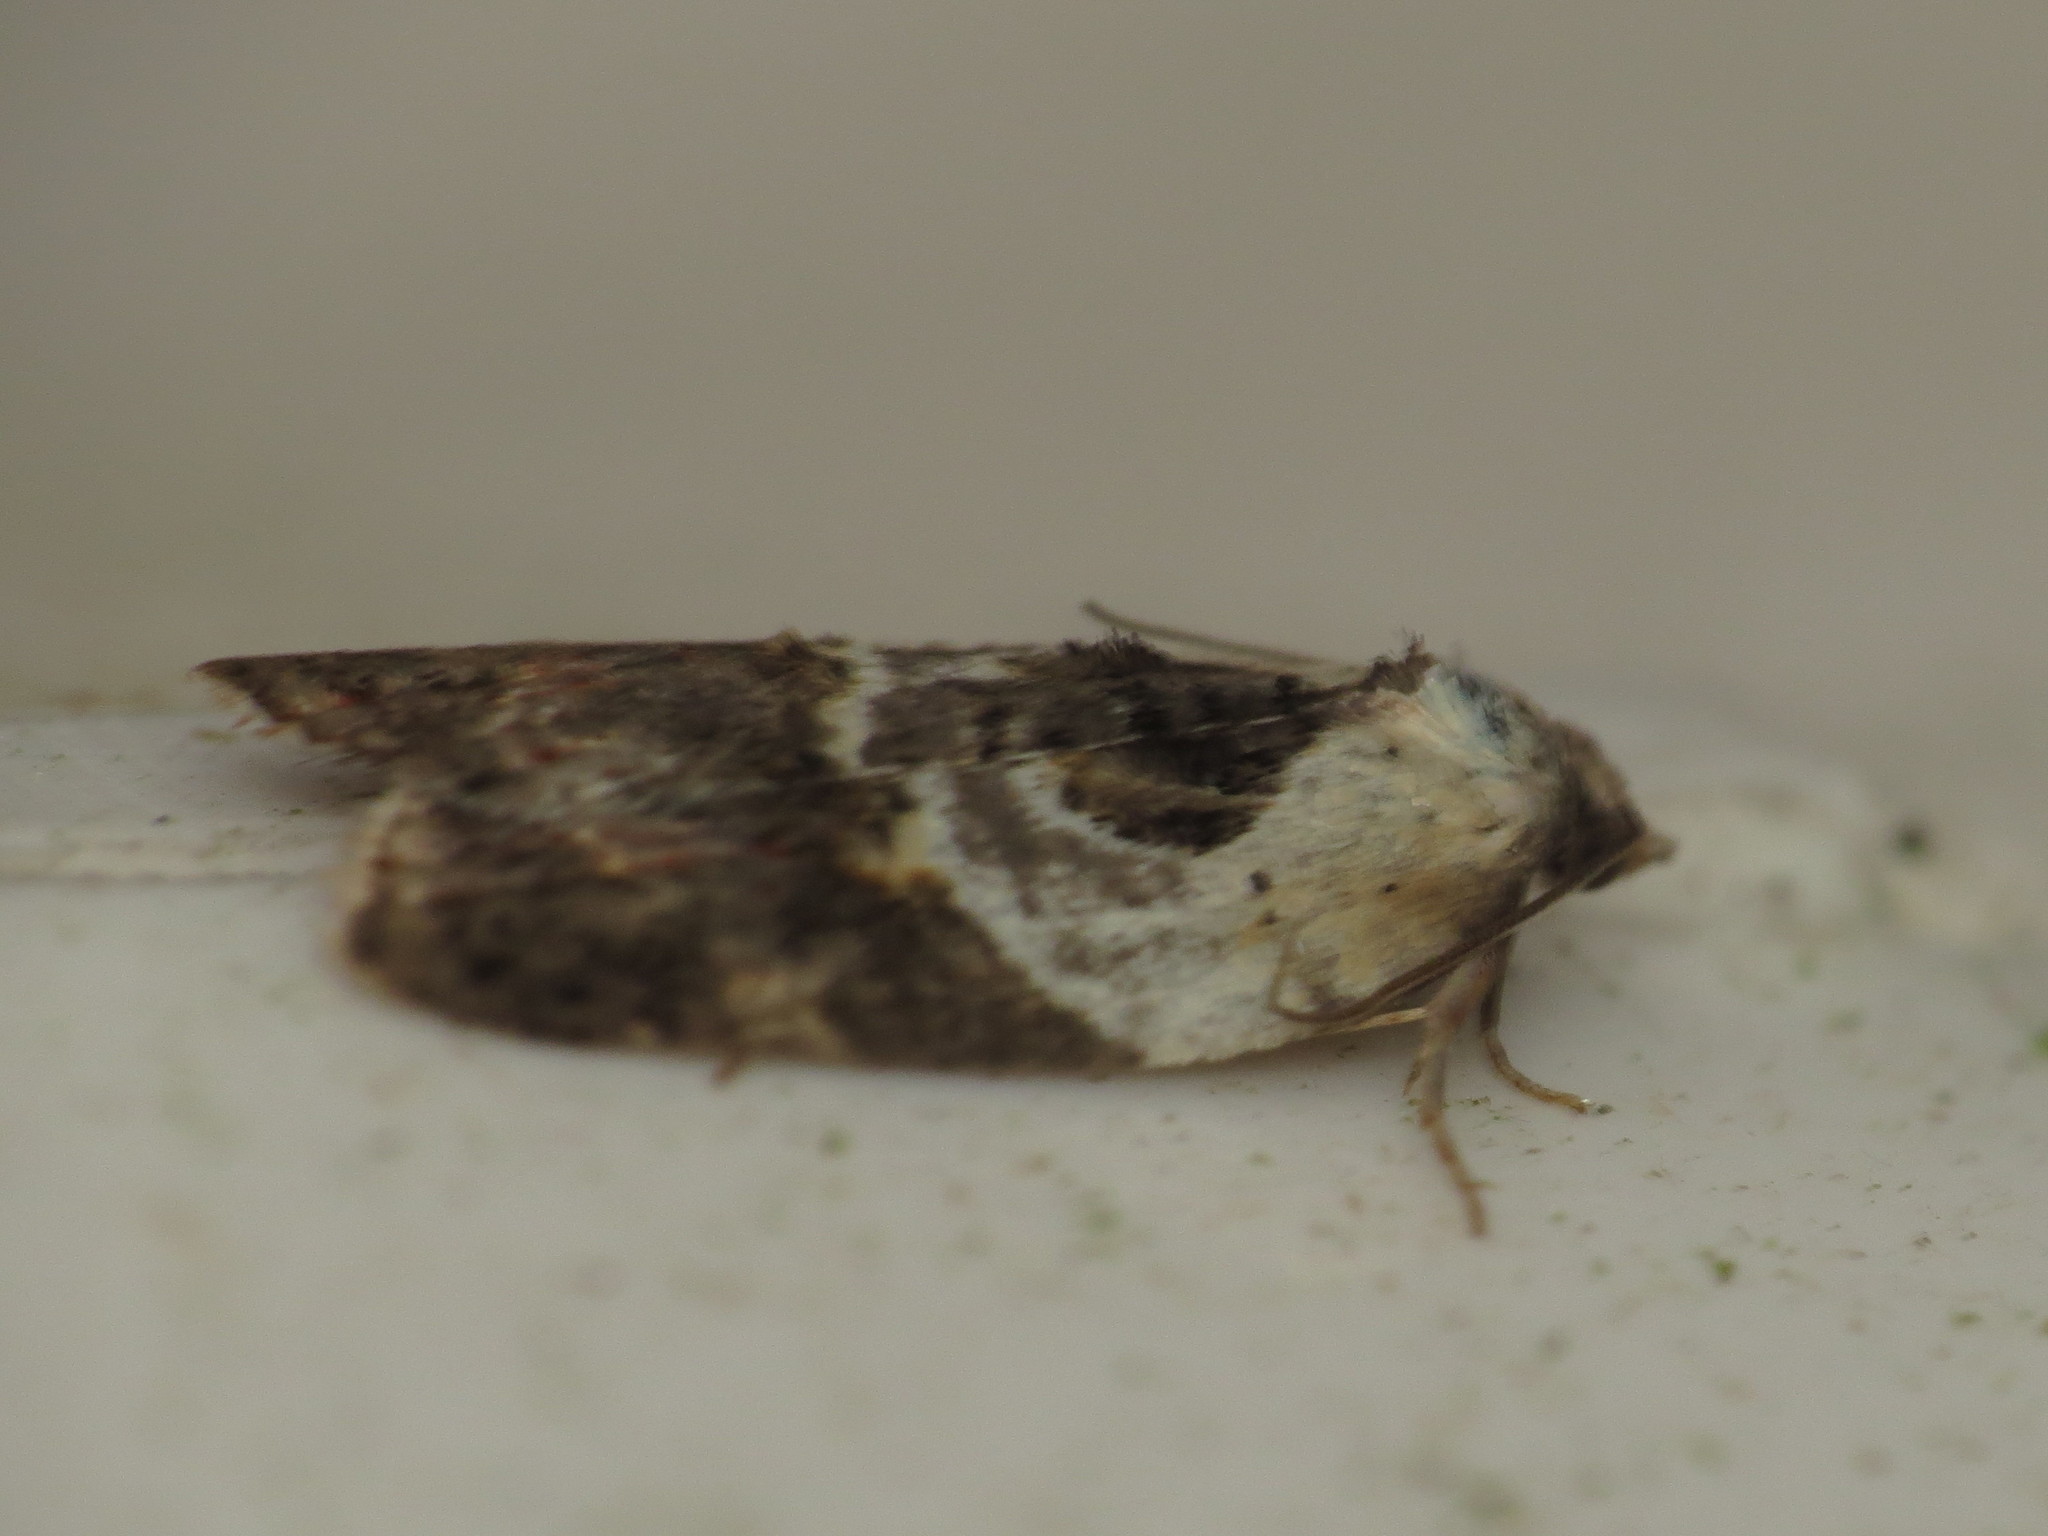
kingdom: Animalia
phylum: Arthropoda
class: Insecta
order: Lepidoptera
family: Tortricidae
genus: Acleris
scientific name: Acleris variegana
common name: Garden rose tortrix
